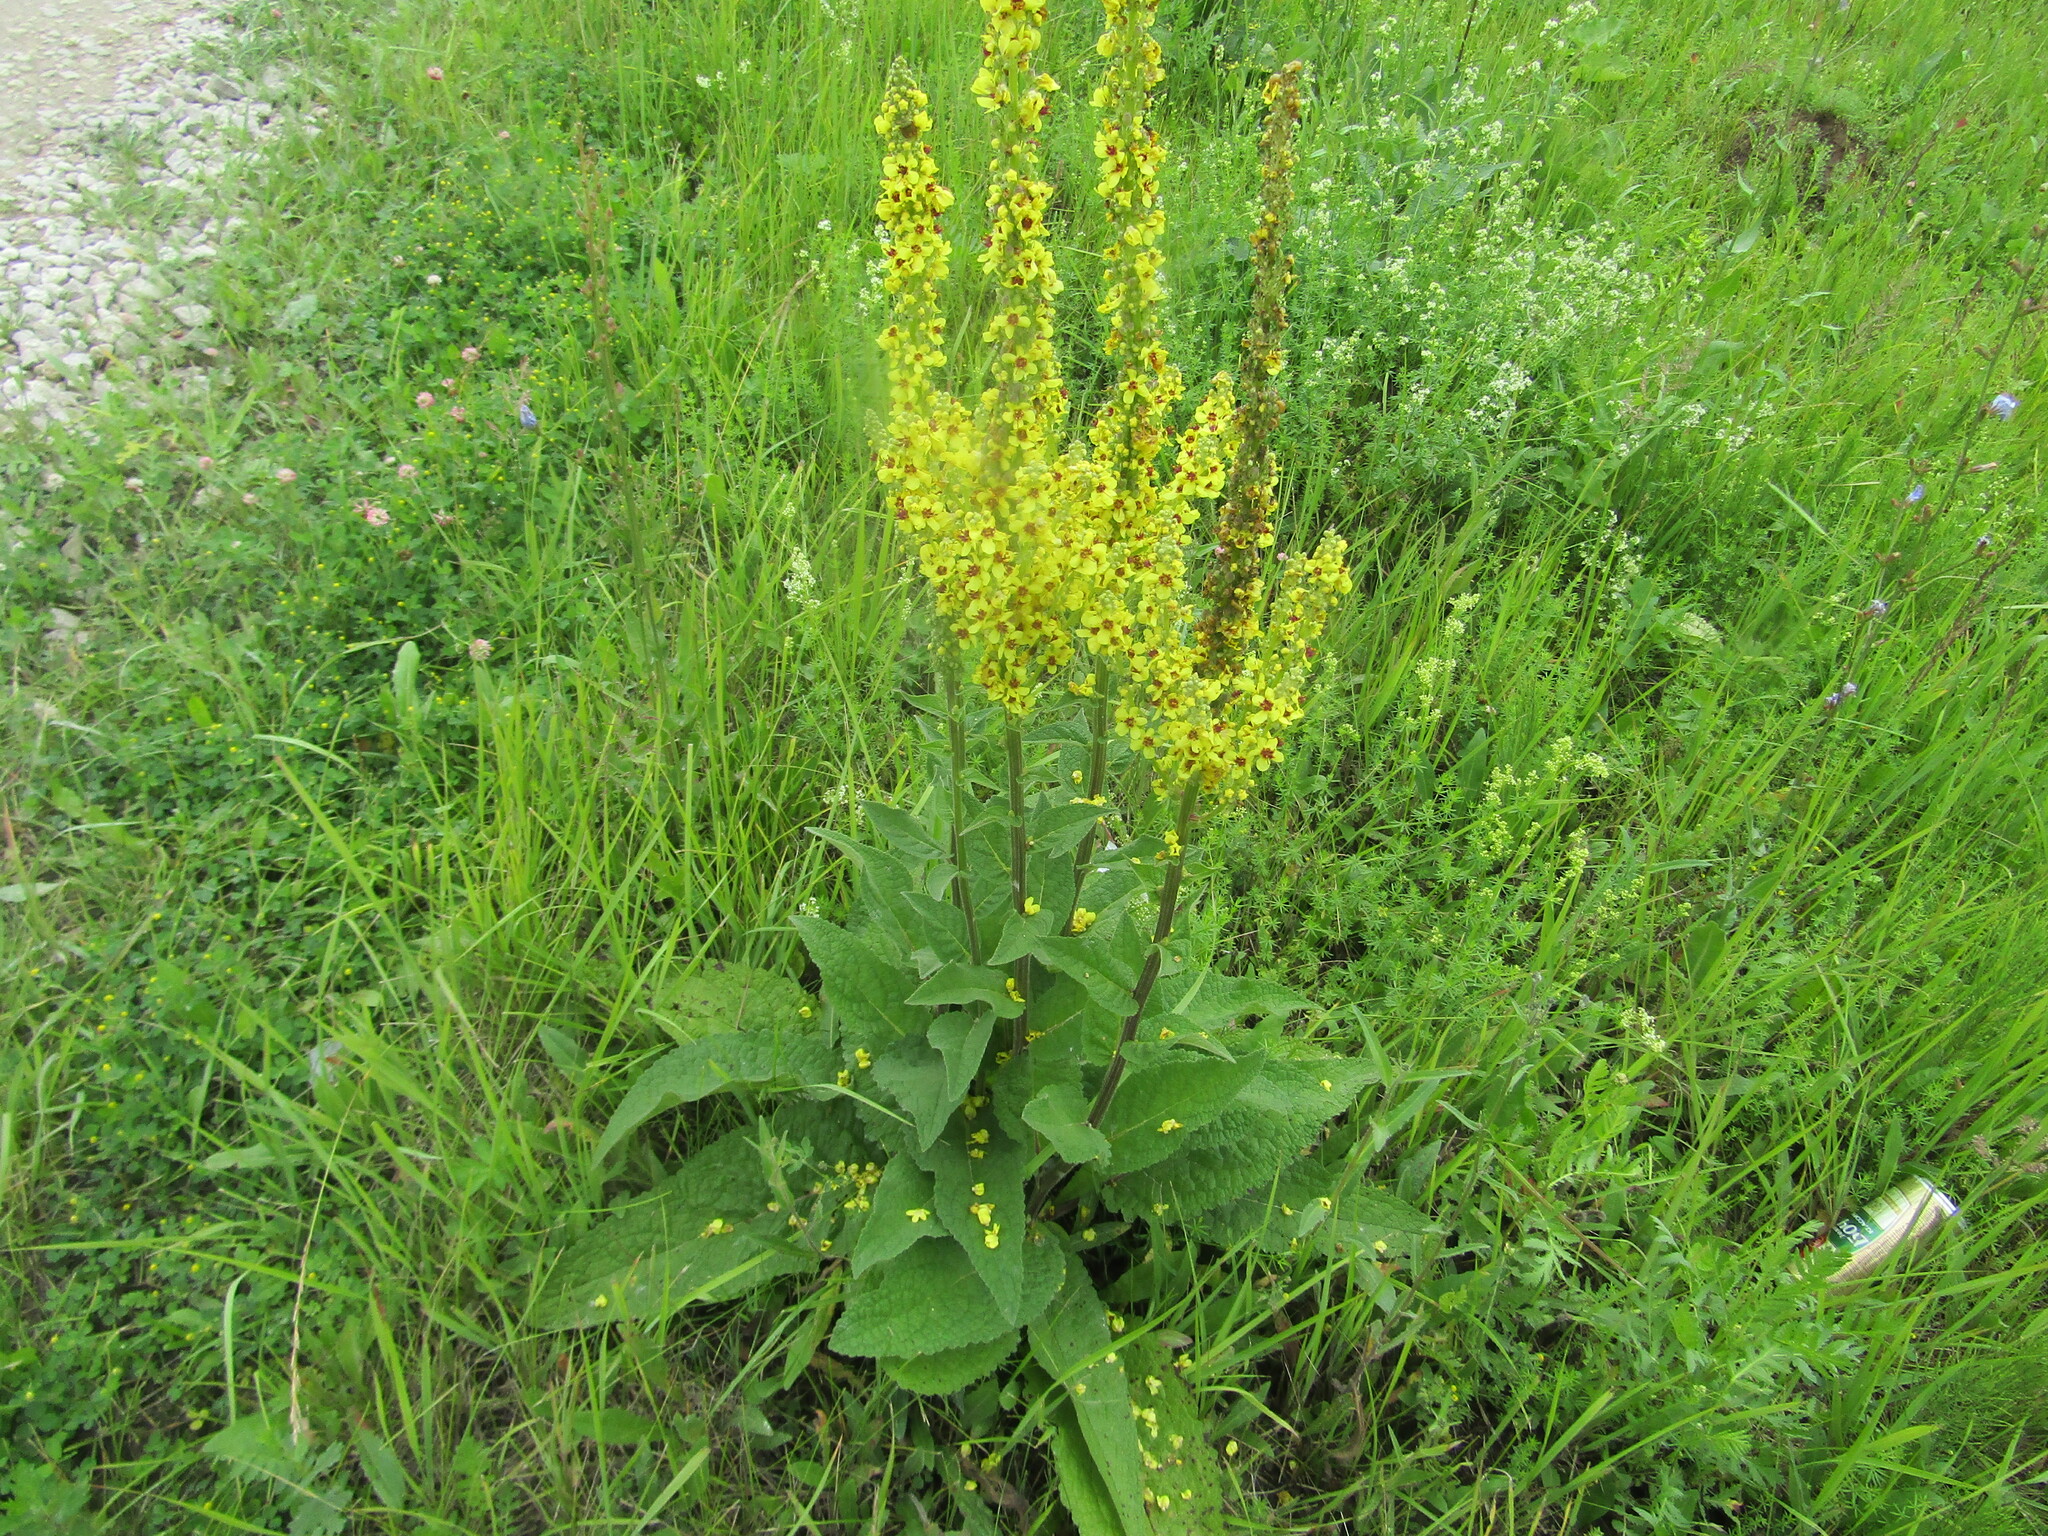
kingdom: Plantae
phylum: Tracheophyta
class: Magnoliopsida
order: Lamiales
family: Scrophulariaceae
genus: Verbascum
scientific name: Verbascum nigrum
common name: Dark mullein
